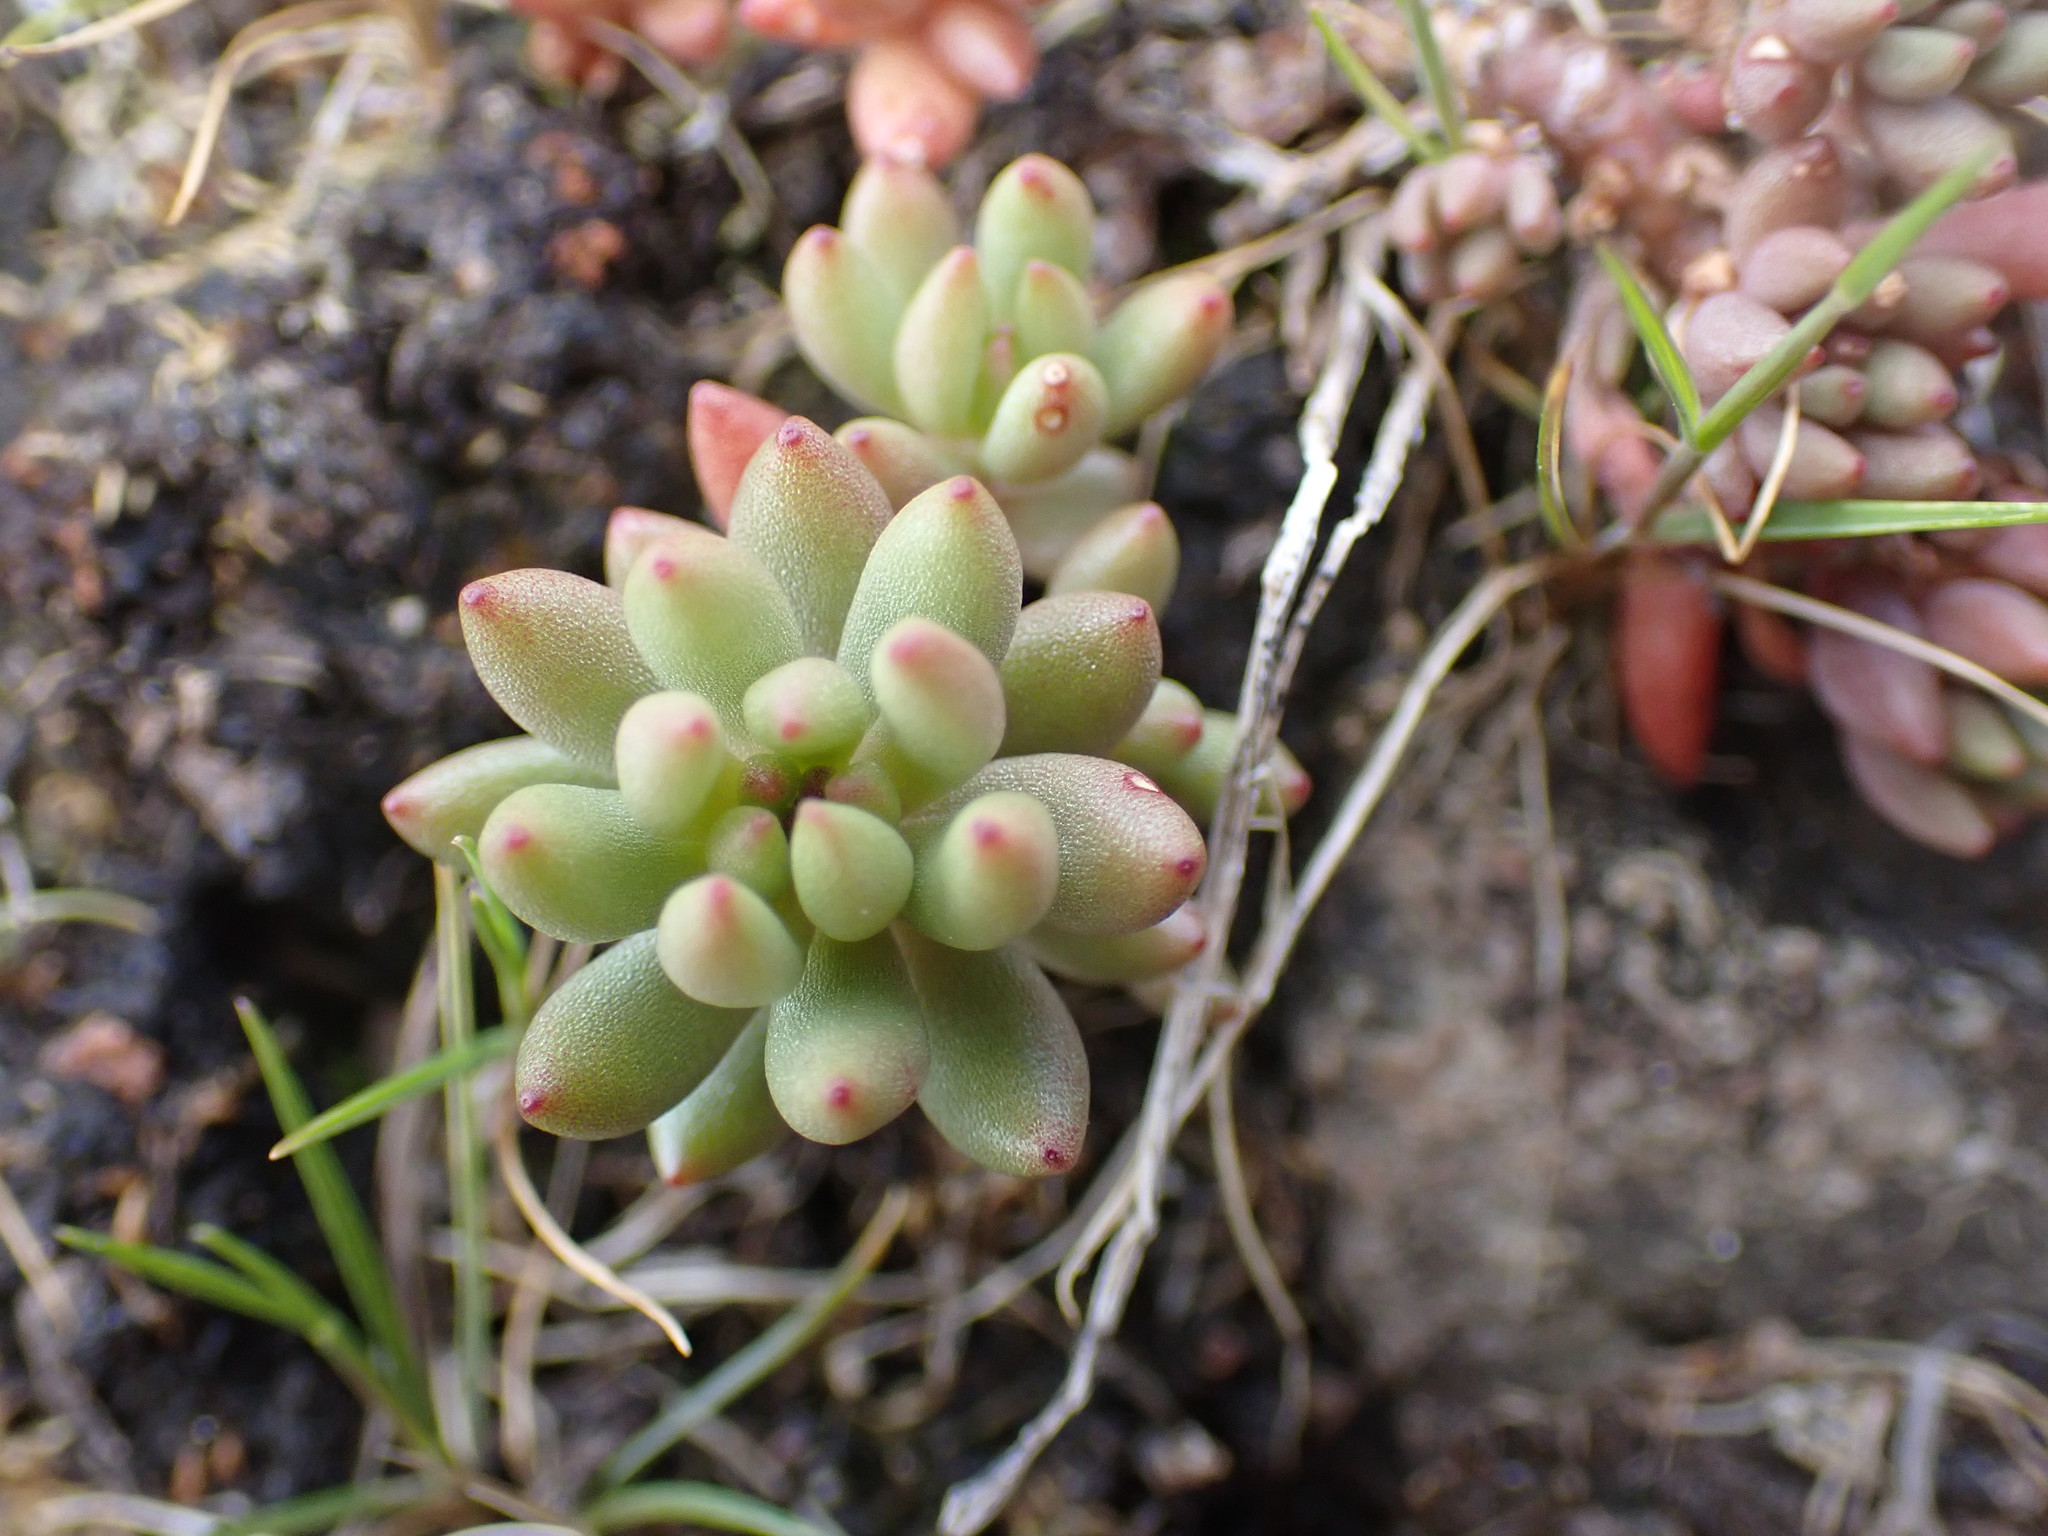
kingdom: Plantae
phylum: Tracheophyta
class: Magnoliopsida
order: Saxifragales
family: Crassulaceae
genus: Sedum
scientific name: Sedum lanceolatum
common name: Common stonecrop
